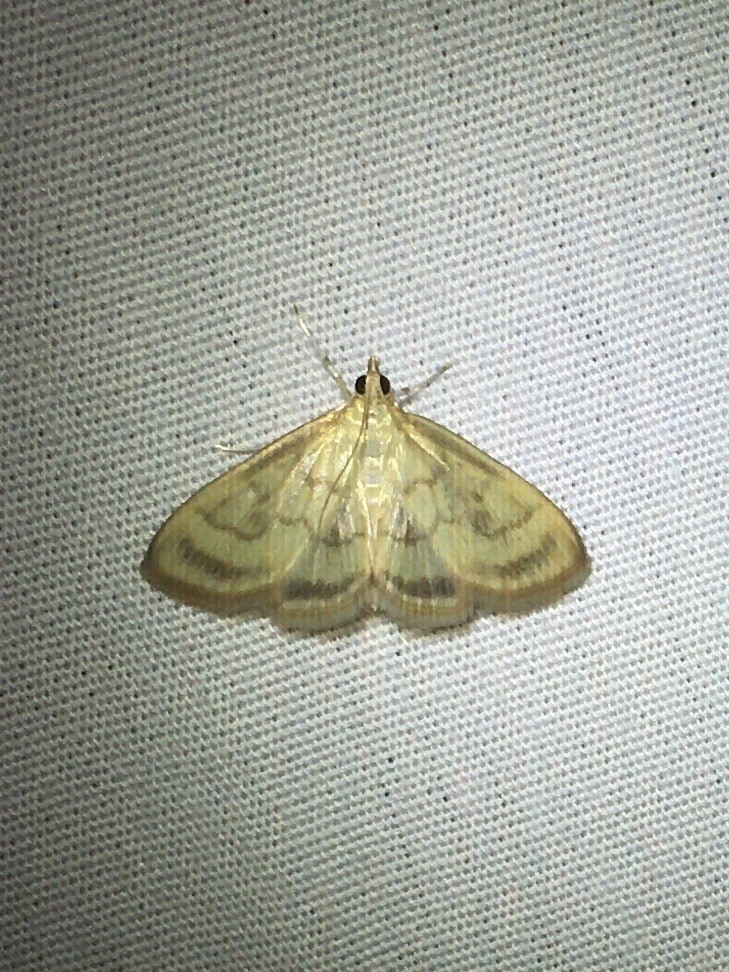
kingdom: Animalia
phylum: Arthropoda
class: Insecta
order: Lepidoptera
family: Crambidae
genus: Crocidophora
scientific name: Crocidophora tuberculalis
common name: Pale-winged crocidiphora moth
